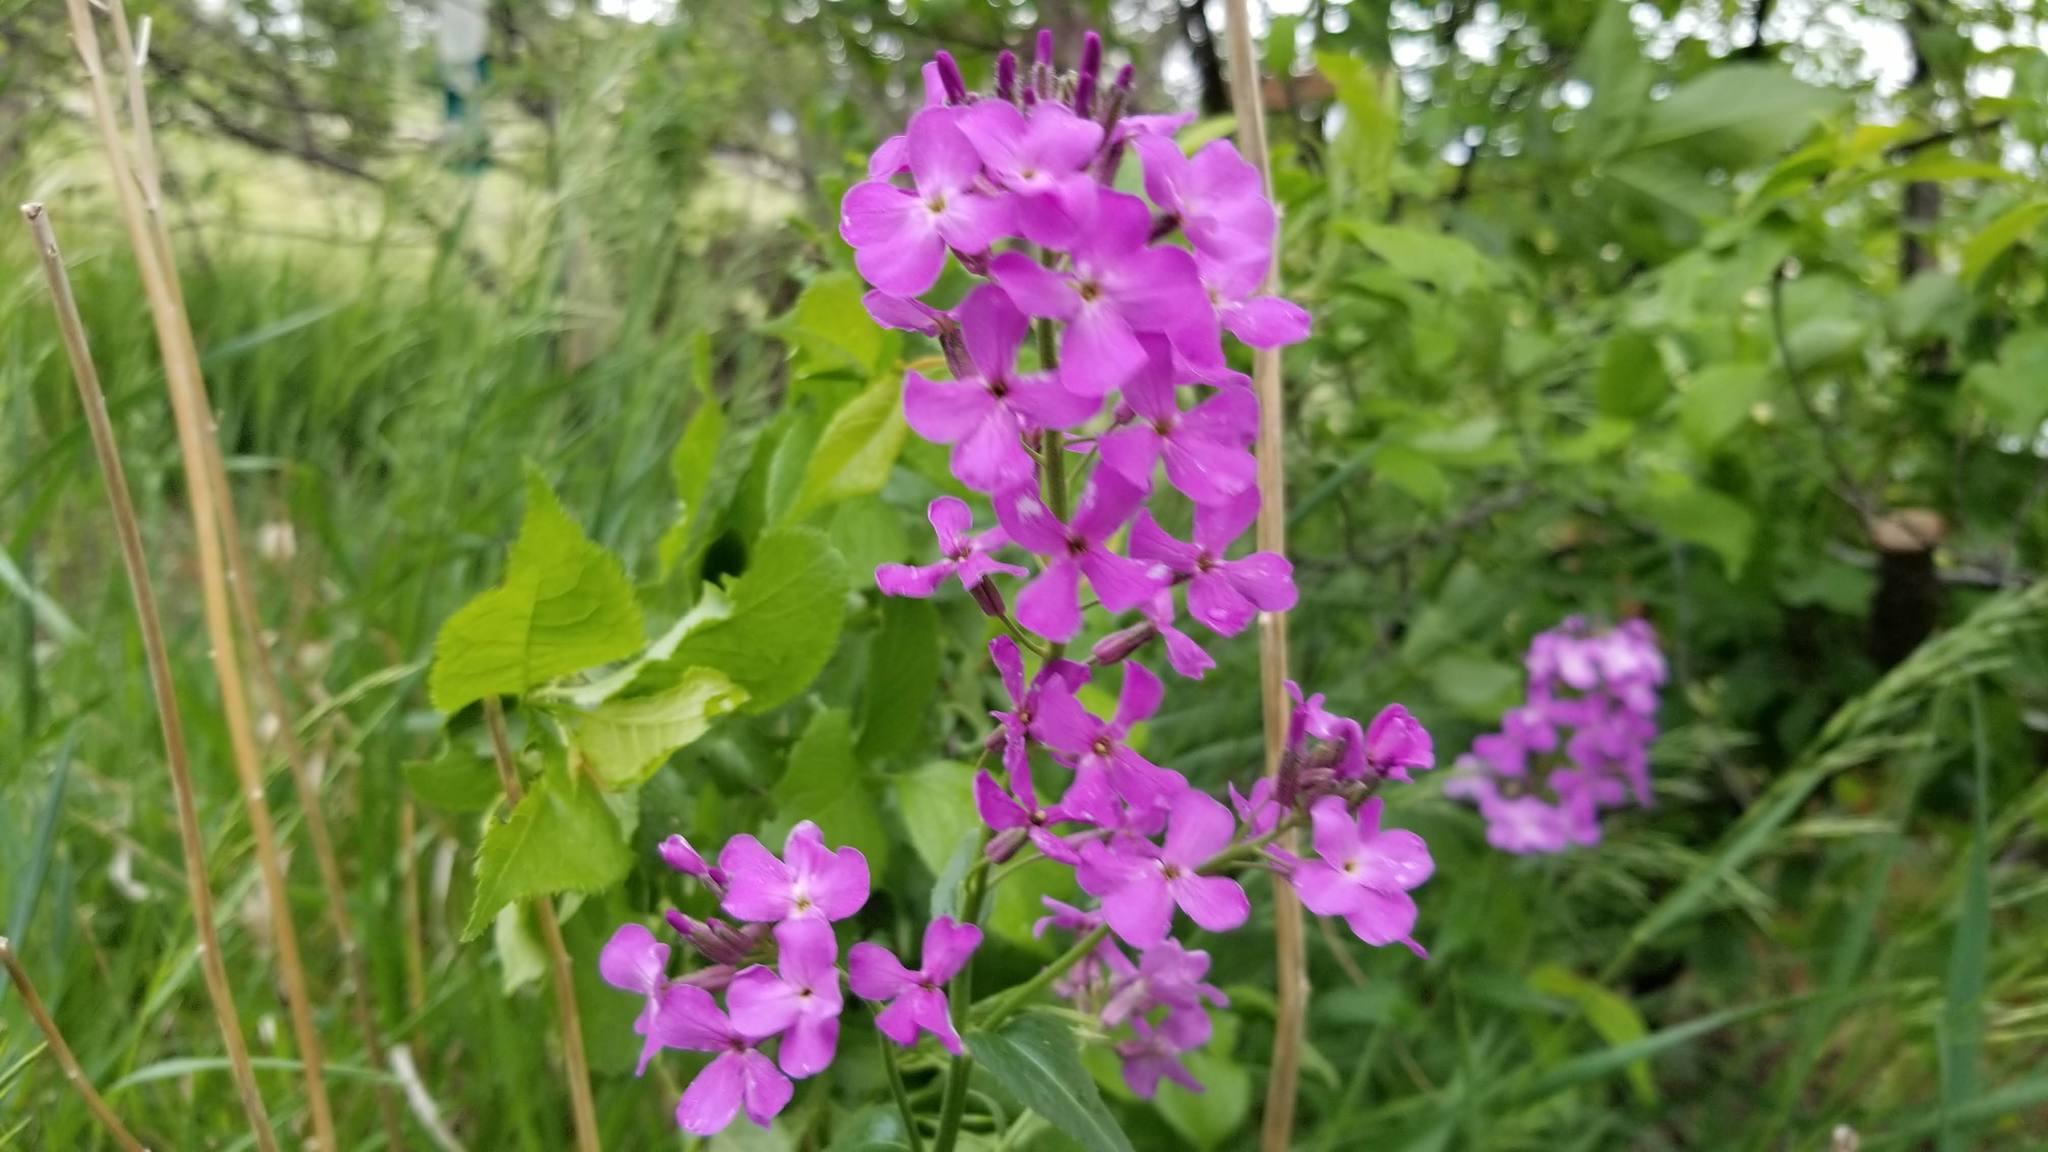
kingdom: Plantae
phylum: Tracheophyta
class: Magnoliopsida
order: Brassicales
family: Brassicaceae
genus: Hesperis
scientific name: Hesperis matronalis
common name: Dame's-violet
